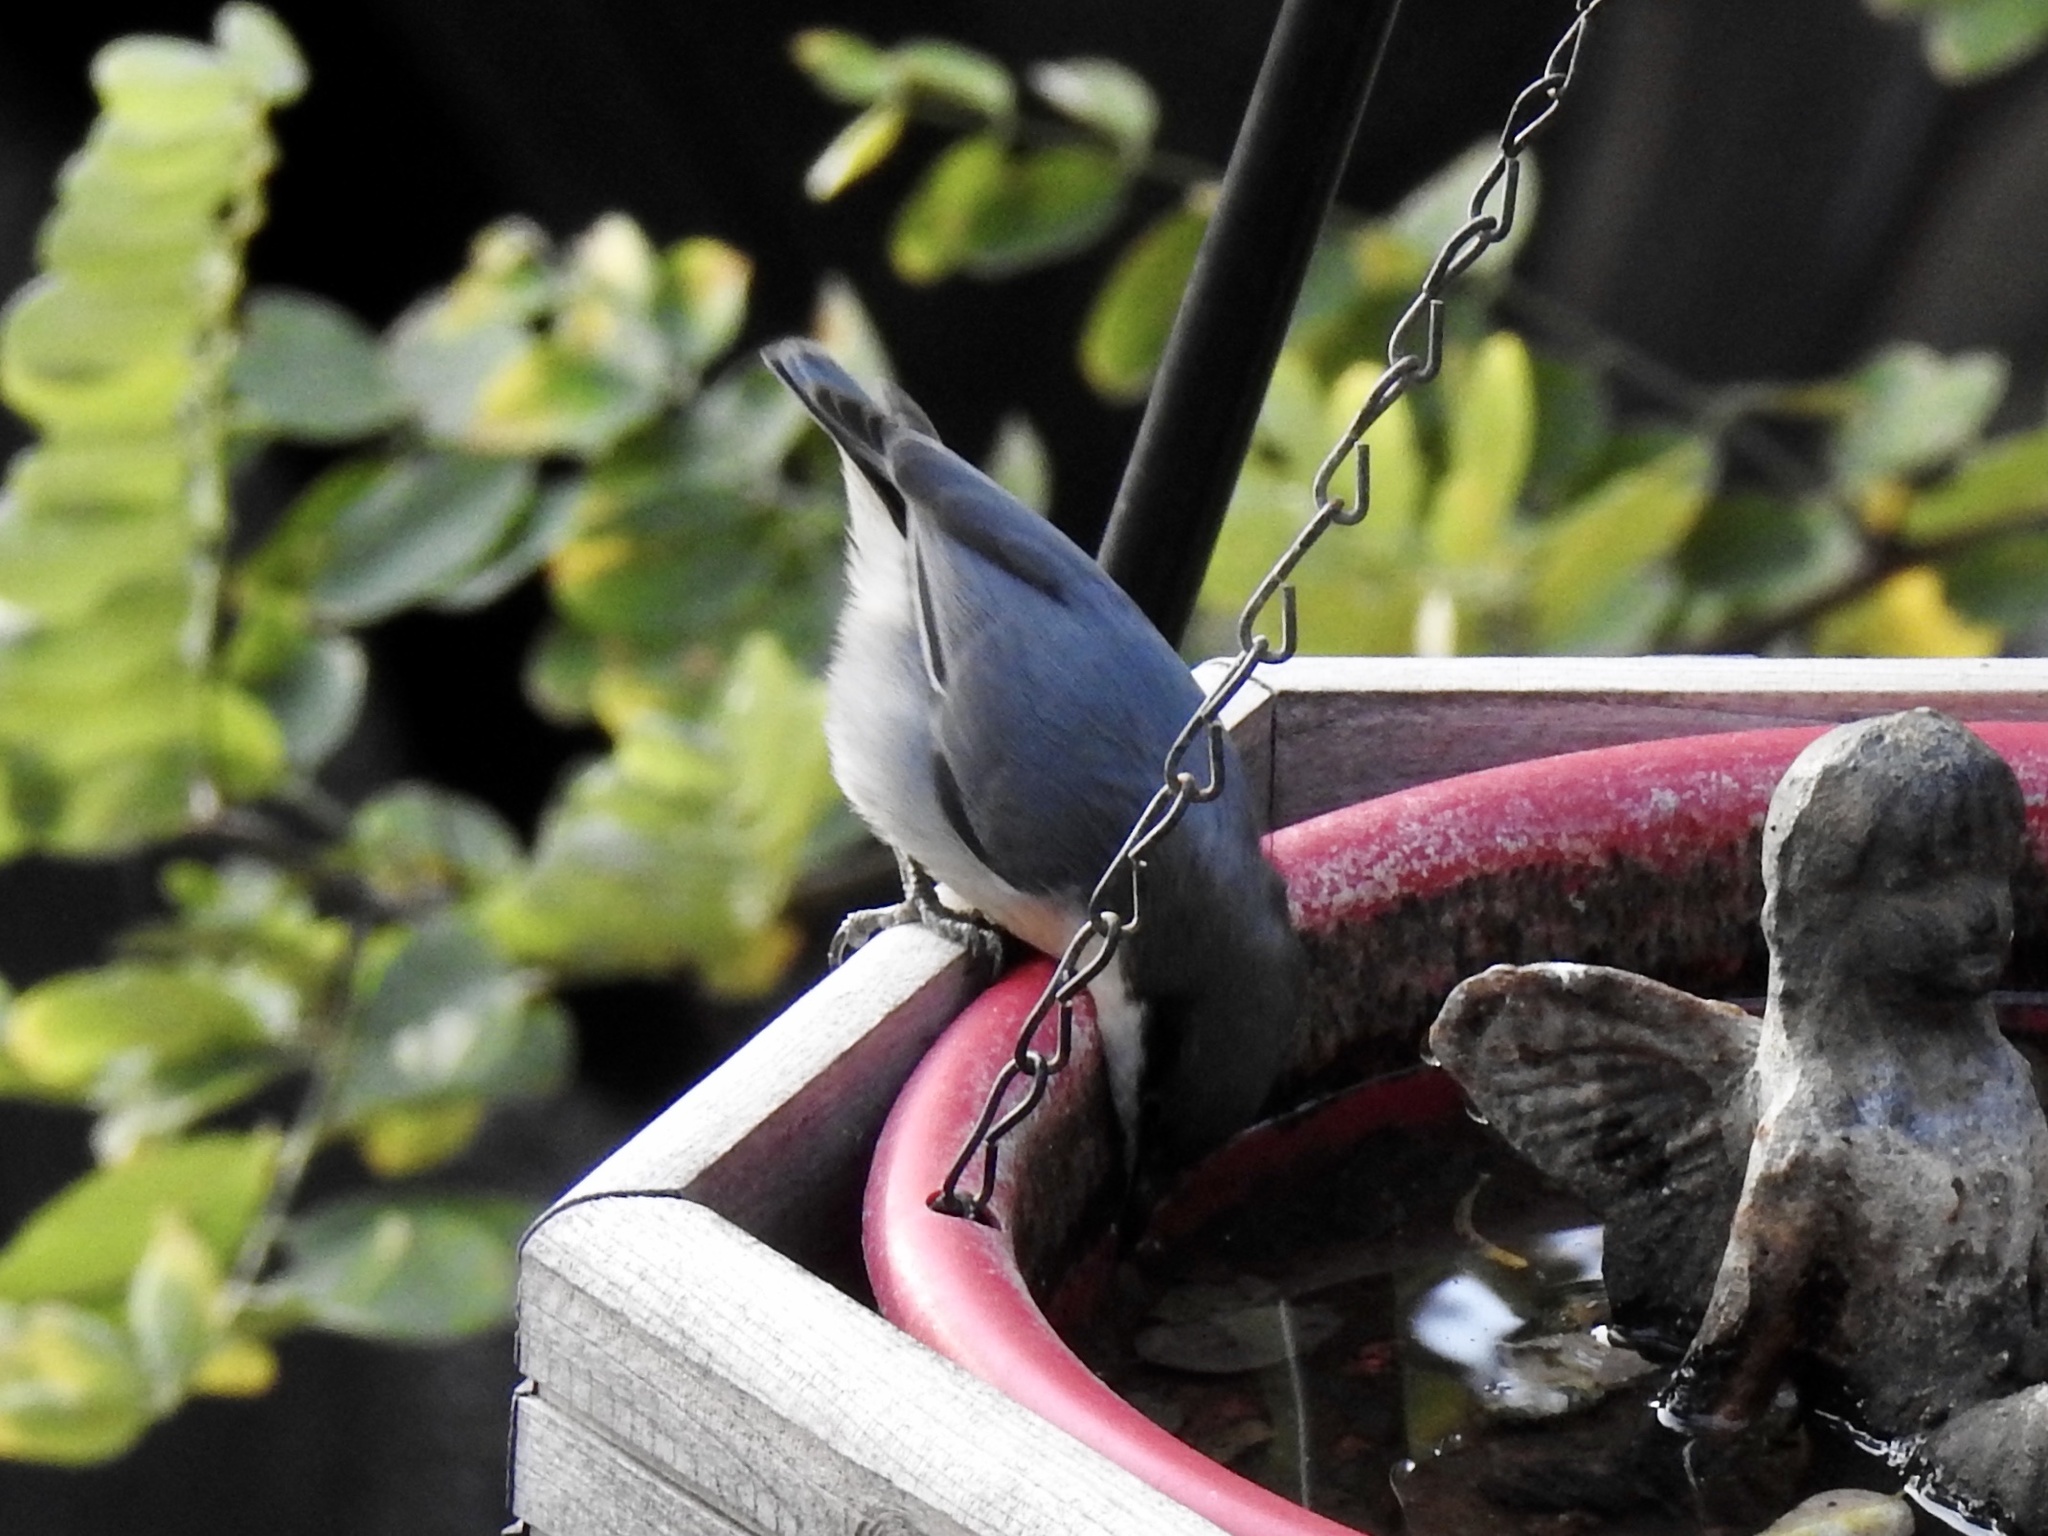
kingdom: Animalia
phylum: Chordata
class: Aves
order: Passeriformes
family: Sittidae
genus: Sitta
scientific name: Sitta pygmaea
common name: Pygmy nuthatch
